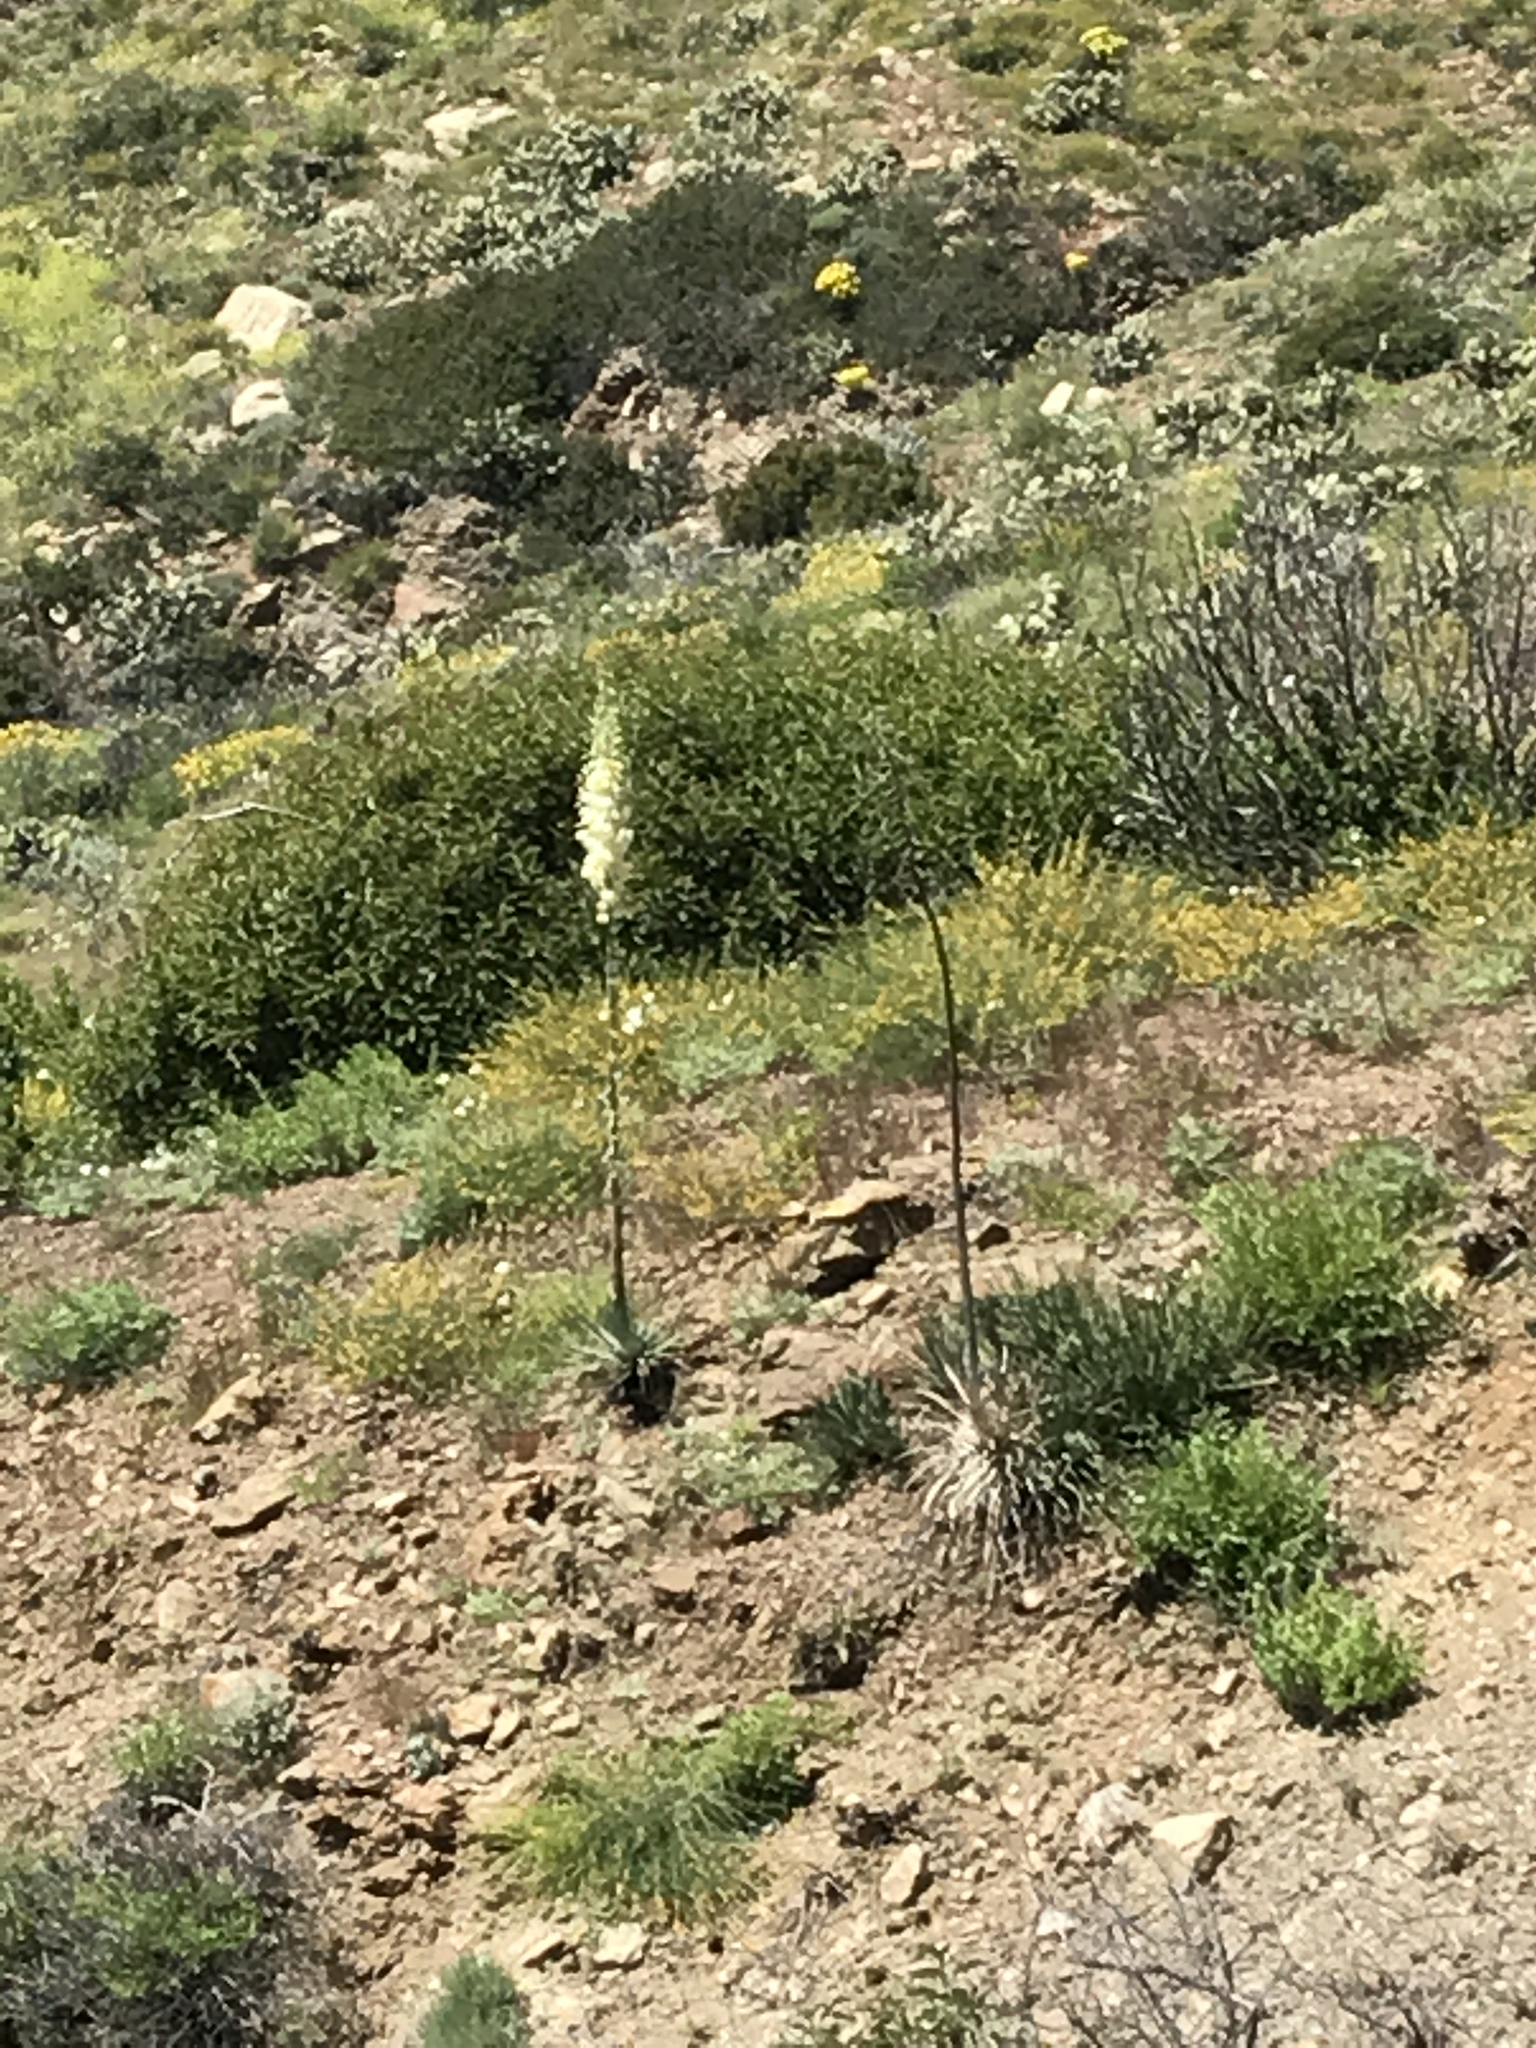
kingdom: Plantae
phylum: Tracheophyta
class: Liliopsida
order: Asparagales
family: Asparagaceae
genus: Hesperoyucca
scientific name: Hesperoyucca whipplei
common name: Our lord's-candle
